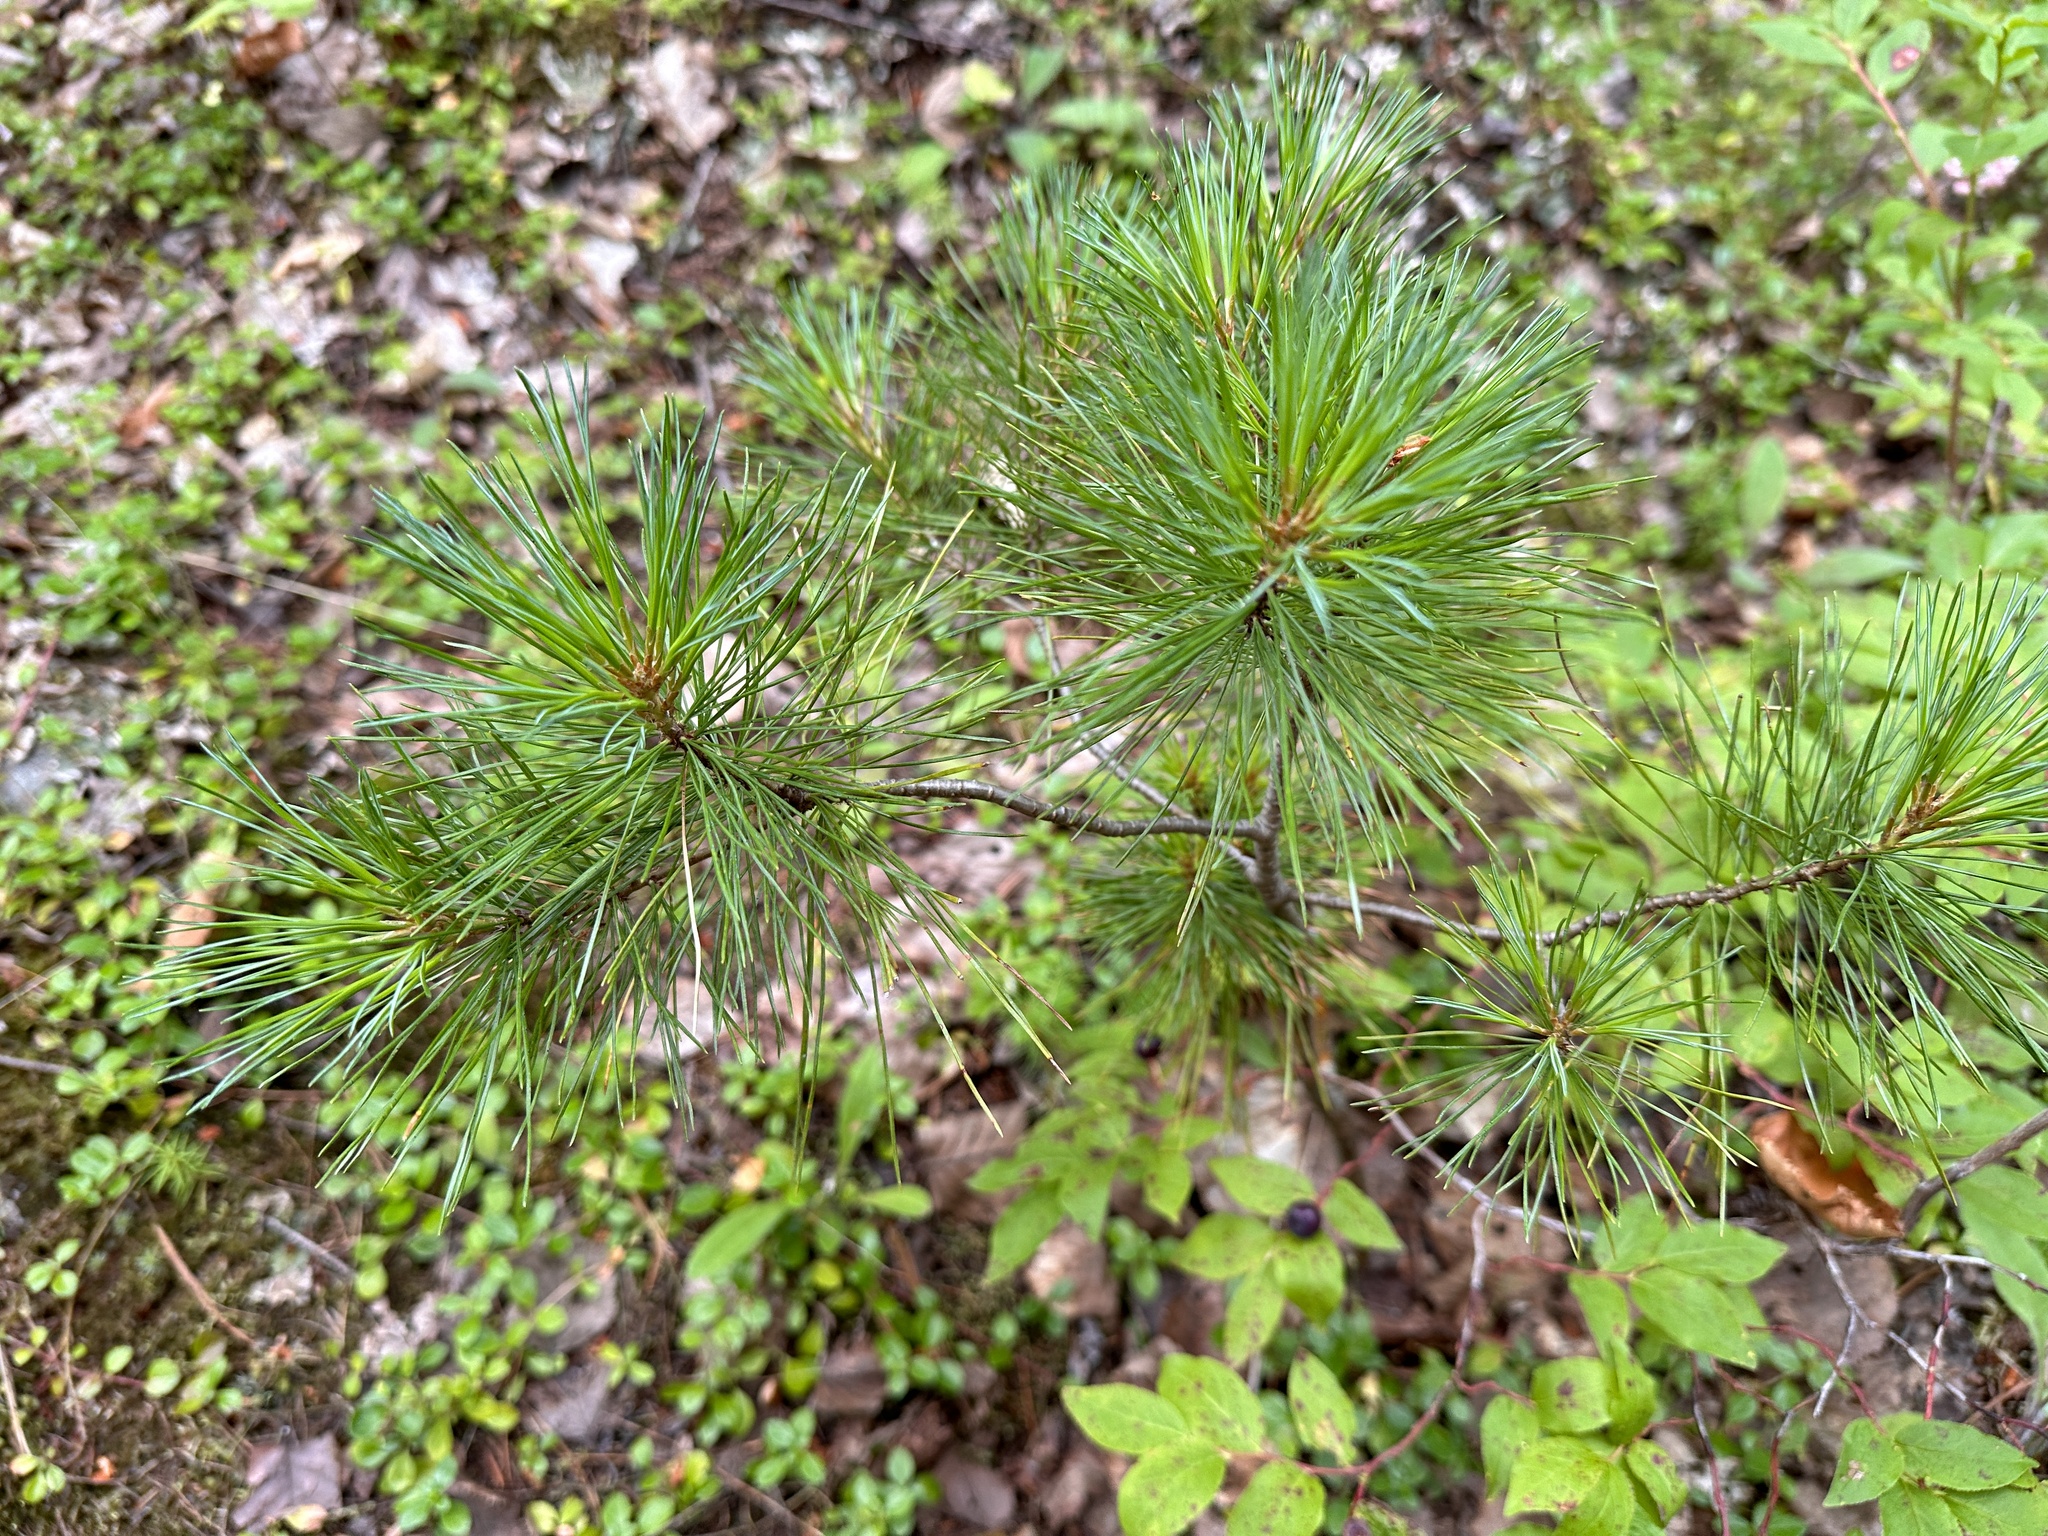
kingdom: Plantae
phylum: Tracheophyta
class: Pinopsida
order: Pinales
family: Pinaceae
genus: Pinus
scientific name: Pinus monticola
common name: Western white pine
